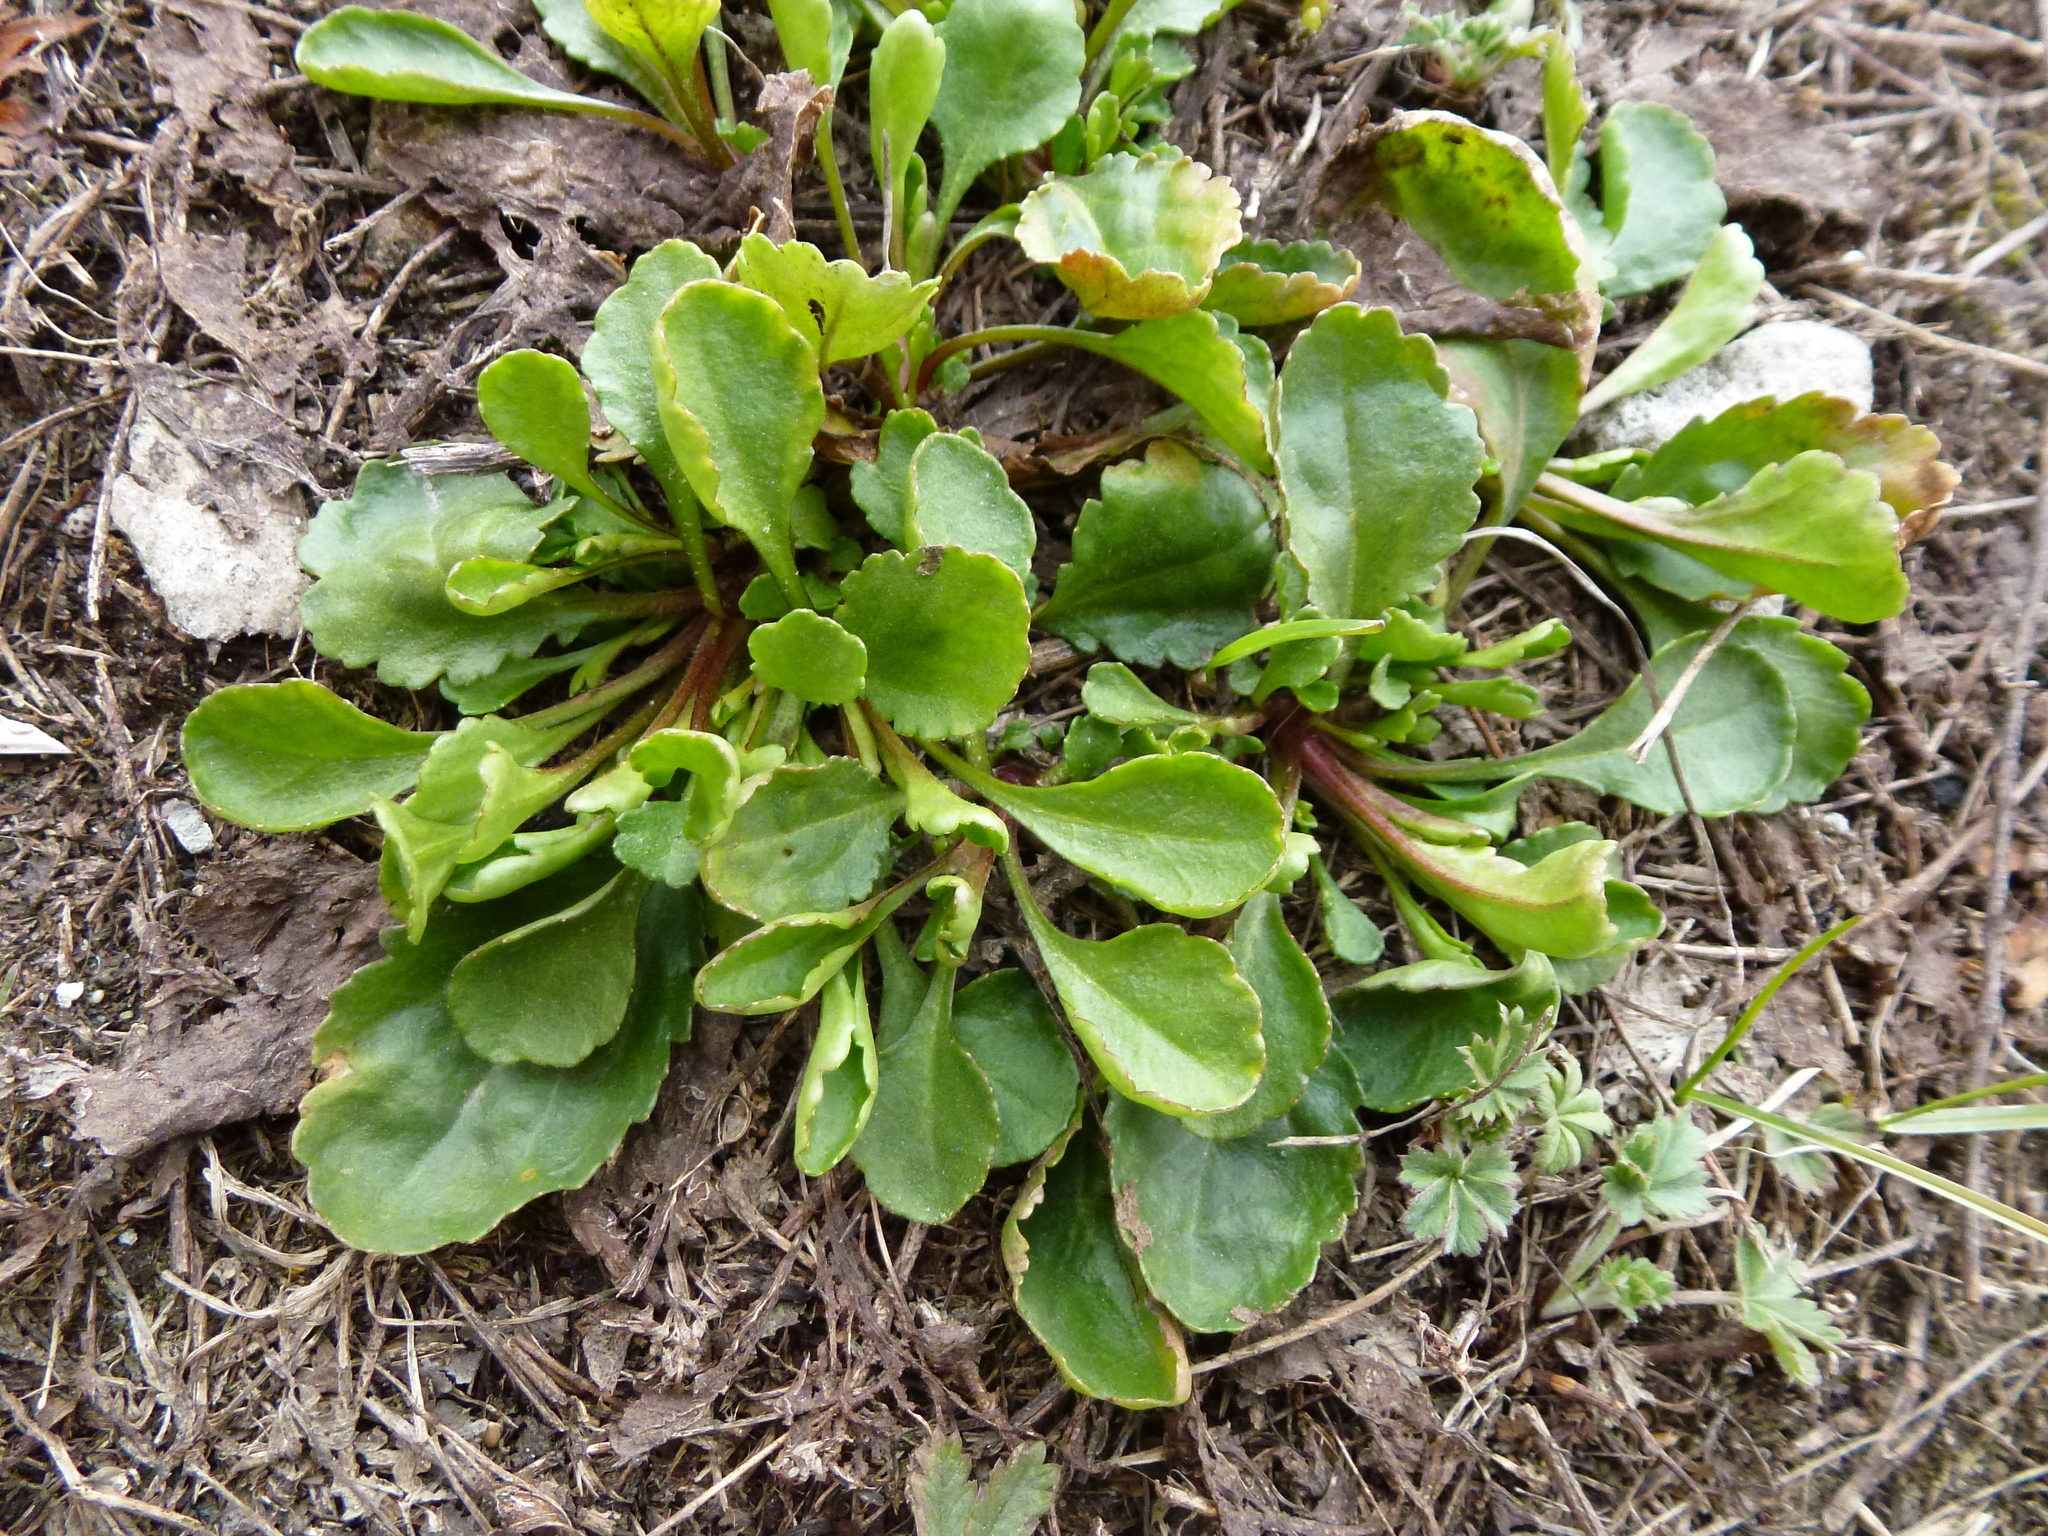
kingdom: Plantae
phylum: Tracheophyta
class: Magnoliopsida
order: Asterales
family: Asteraceae
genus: Leucanthemum
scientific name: Leucanthemum ircutianum
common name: Daisy
